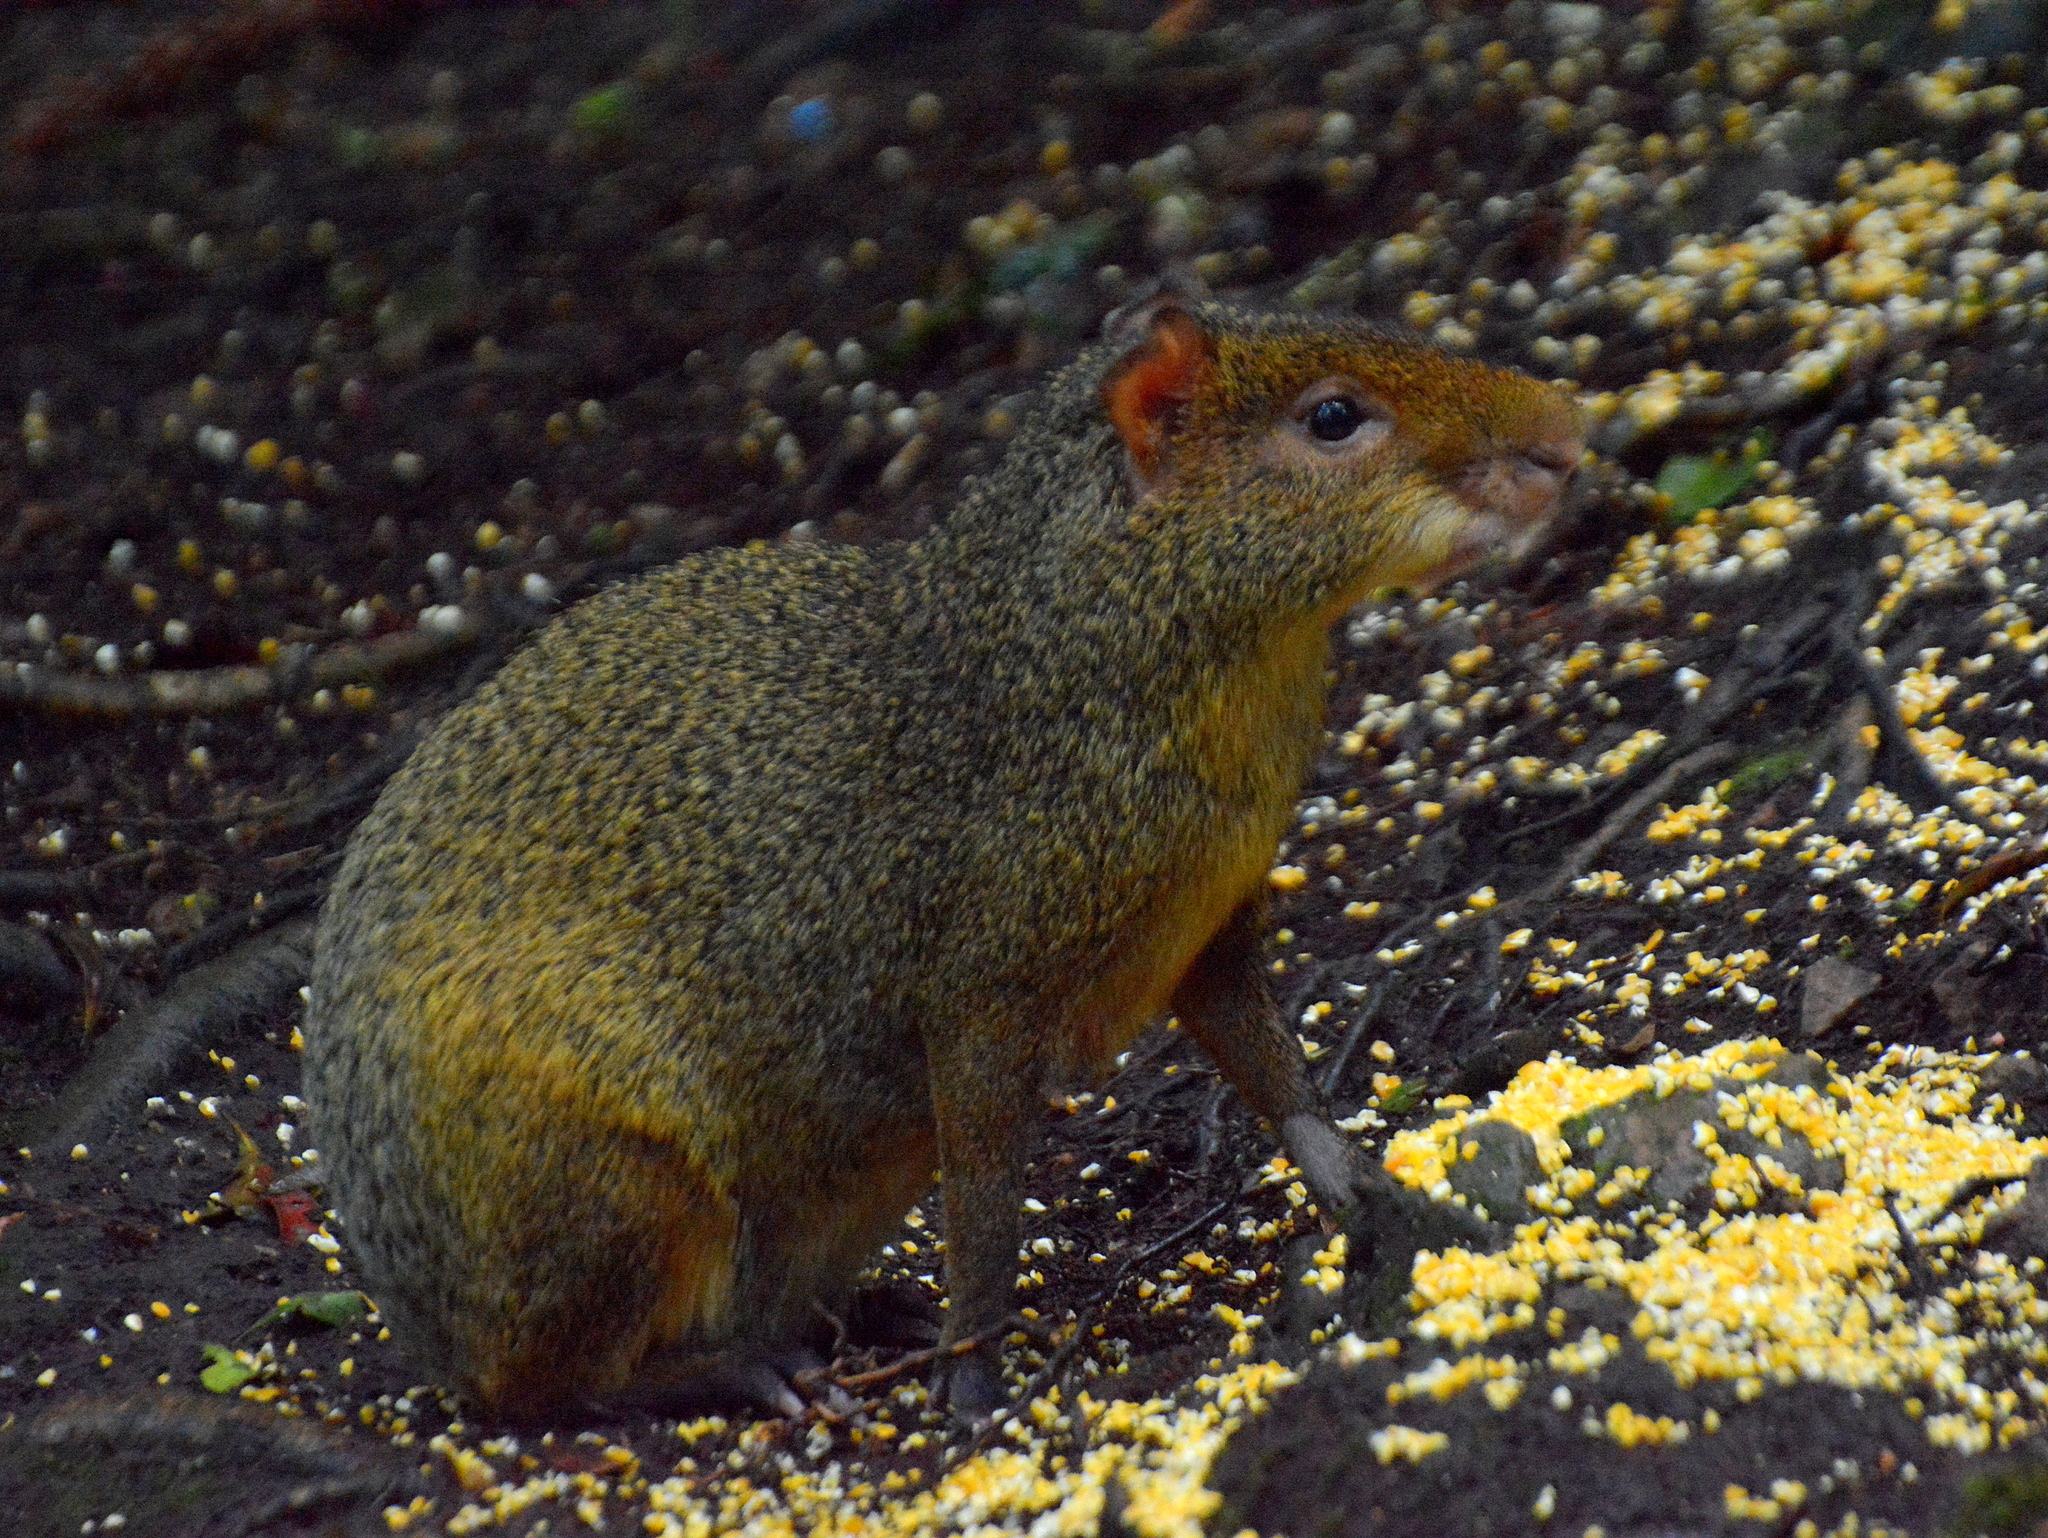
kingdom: Animalia
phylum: Chordata
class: Mammalia
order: Rodentia
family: Dasyproctidae
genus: Dasyprocta
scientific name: Dasyprocta azarae
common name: Azara's agouti
